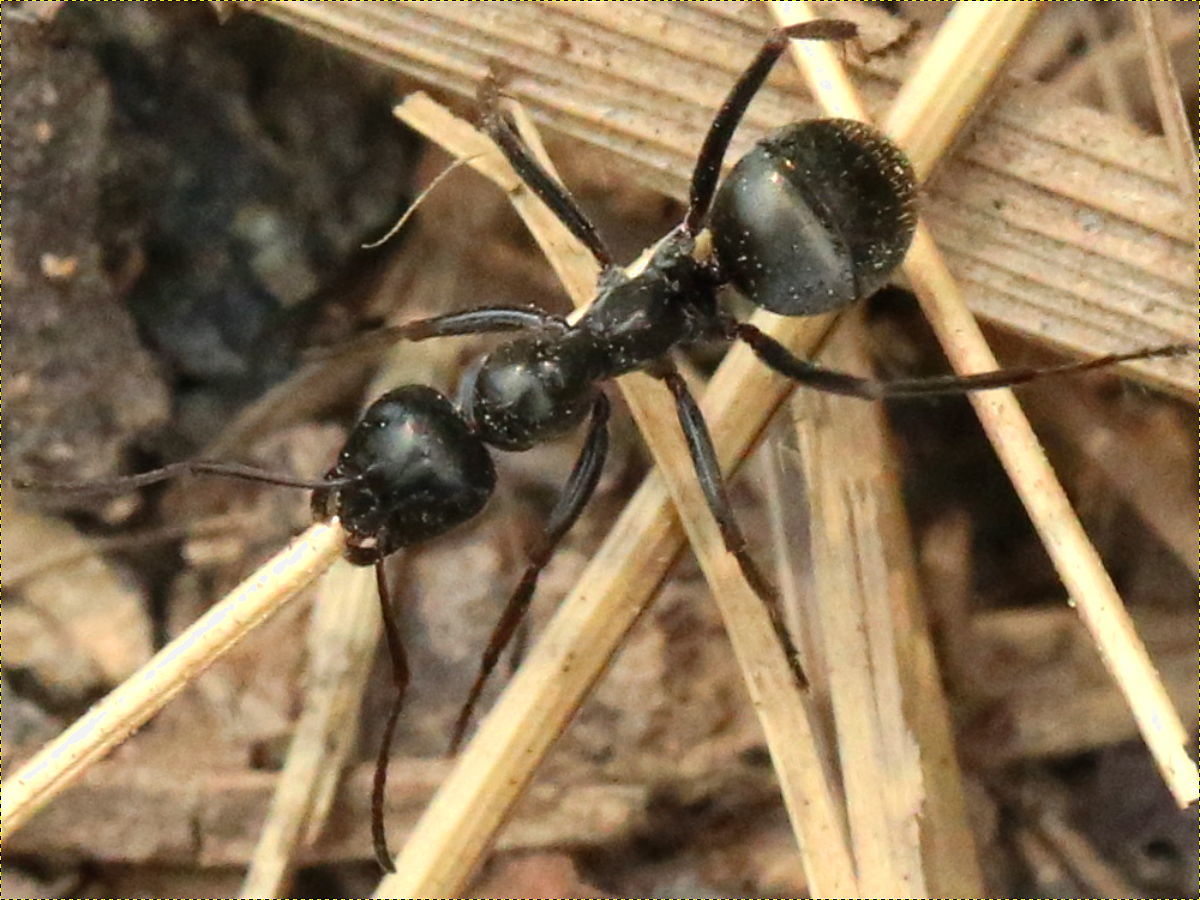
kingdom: Animalia
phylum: Arthropoda
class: Insecta
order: Hymenoptera
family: Formicidae
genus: Formica
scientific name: Formica subsericea
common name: Silky field ant
